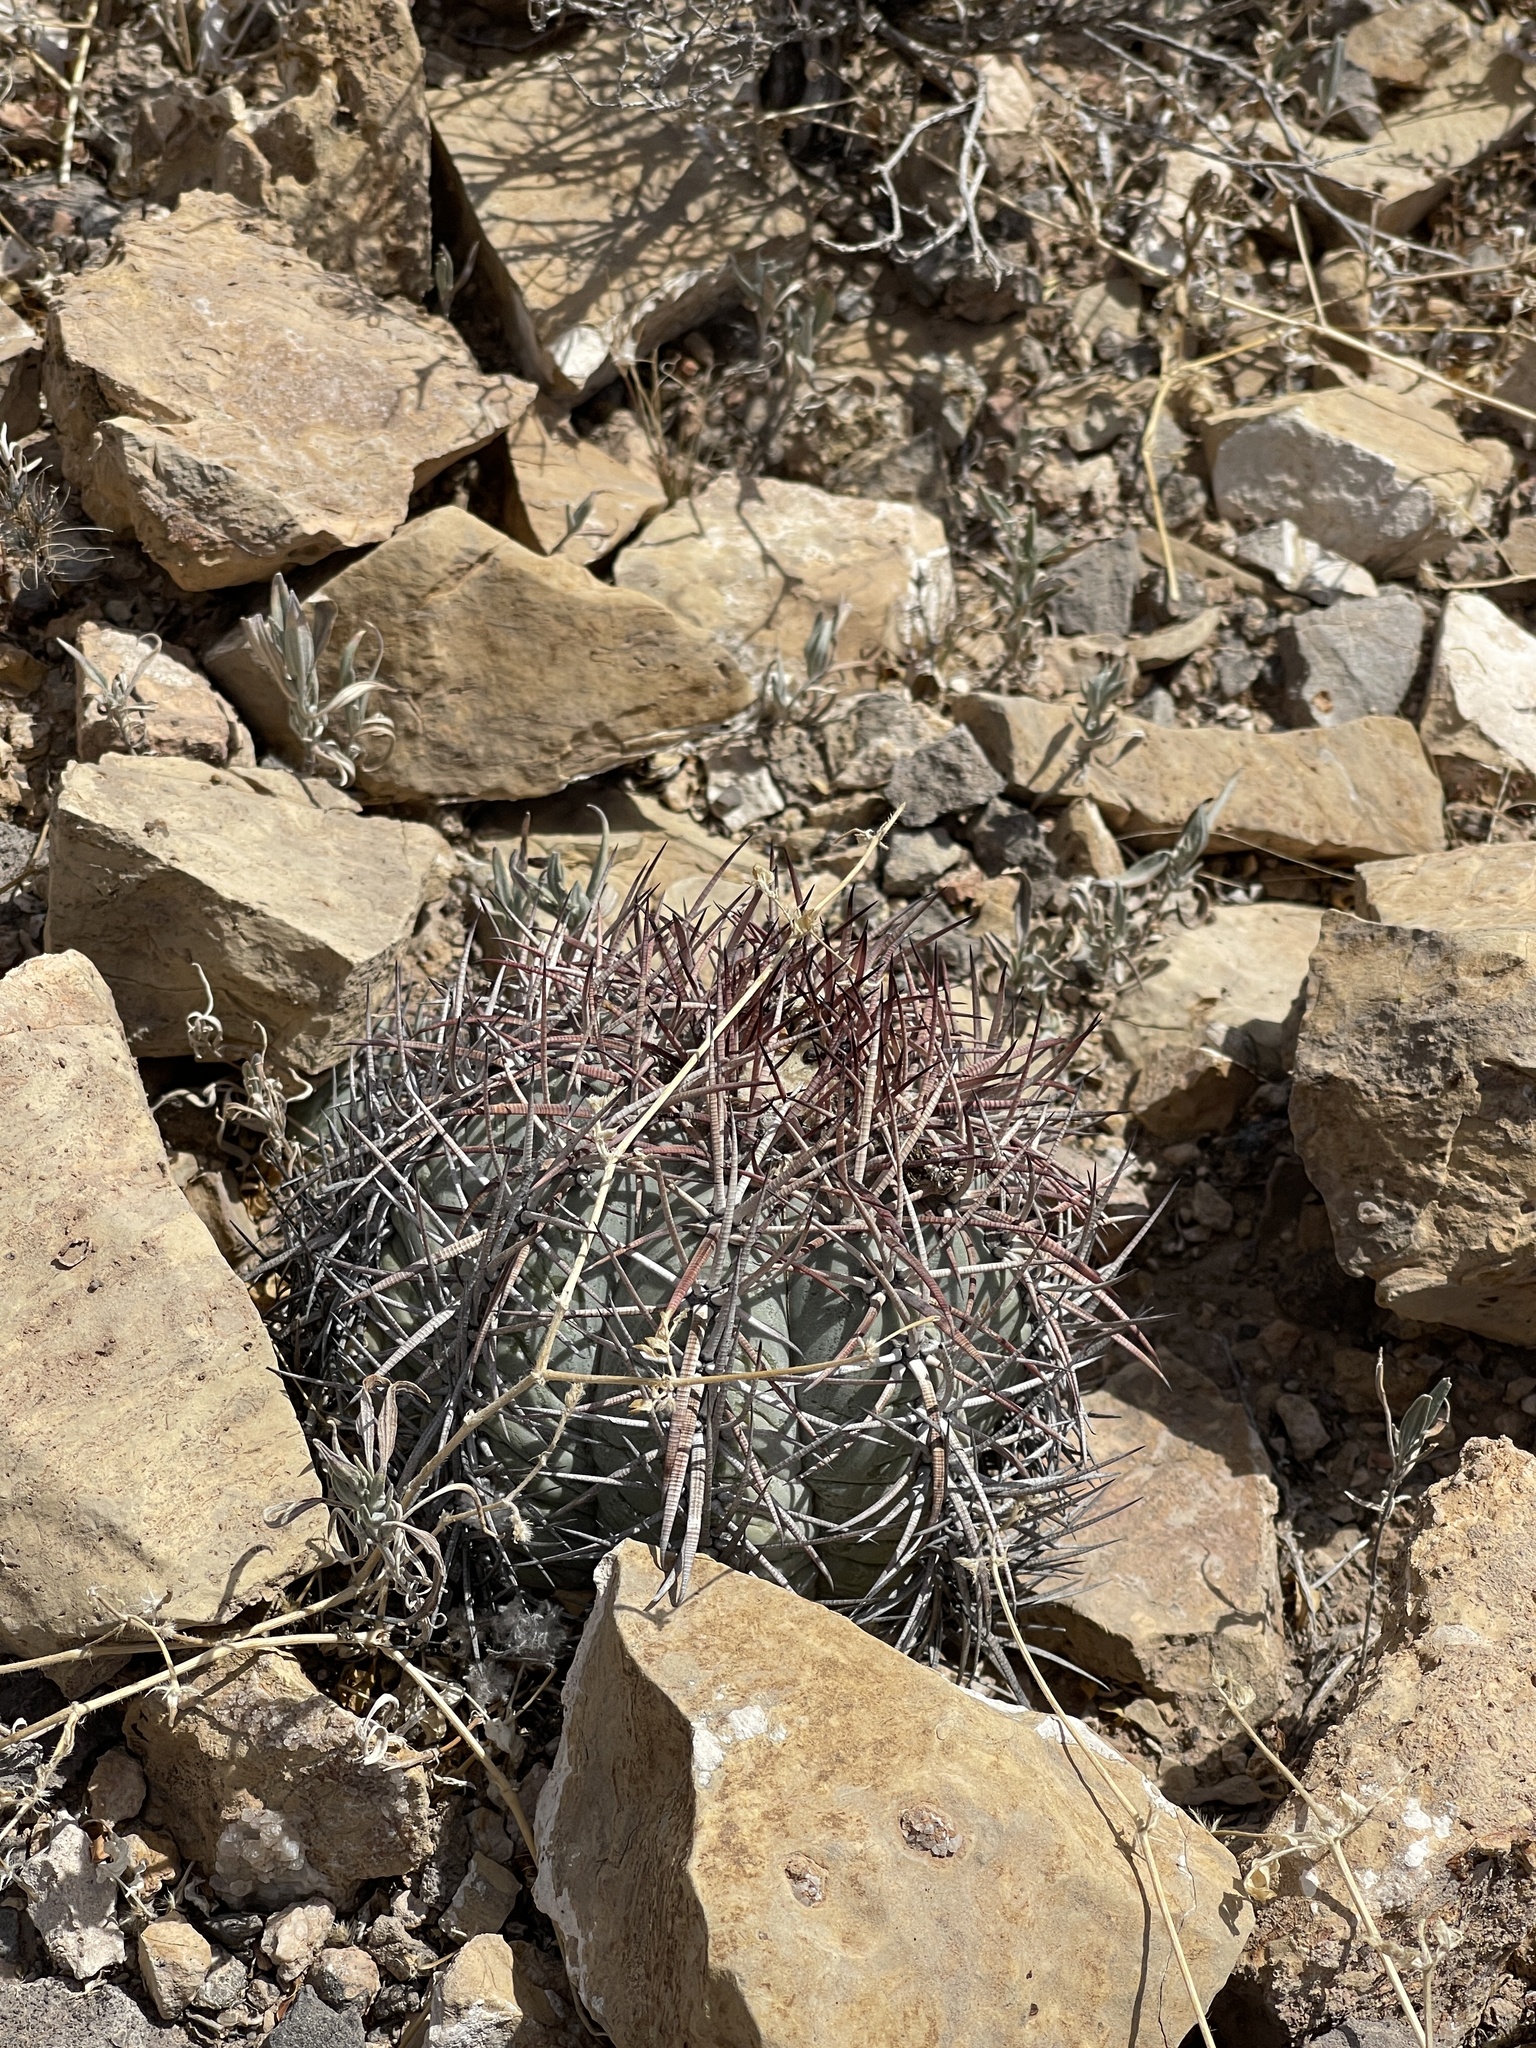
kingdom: Plantae
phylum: Tracheophyta
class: Magnoliopsida
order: Caryophyllales
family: Cactaceae
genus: Echinocactus
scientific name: Echinocactus horizonthalonius
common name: Devilshead
